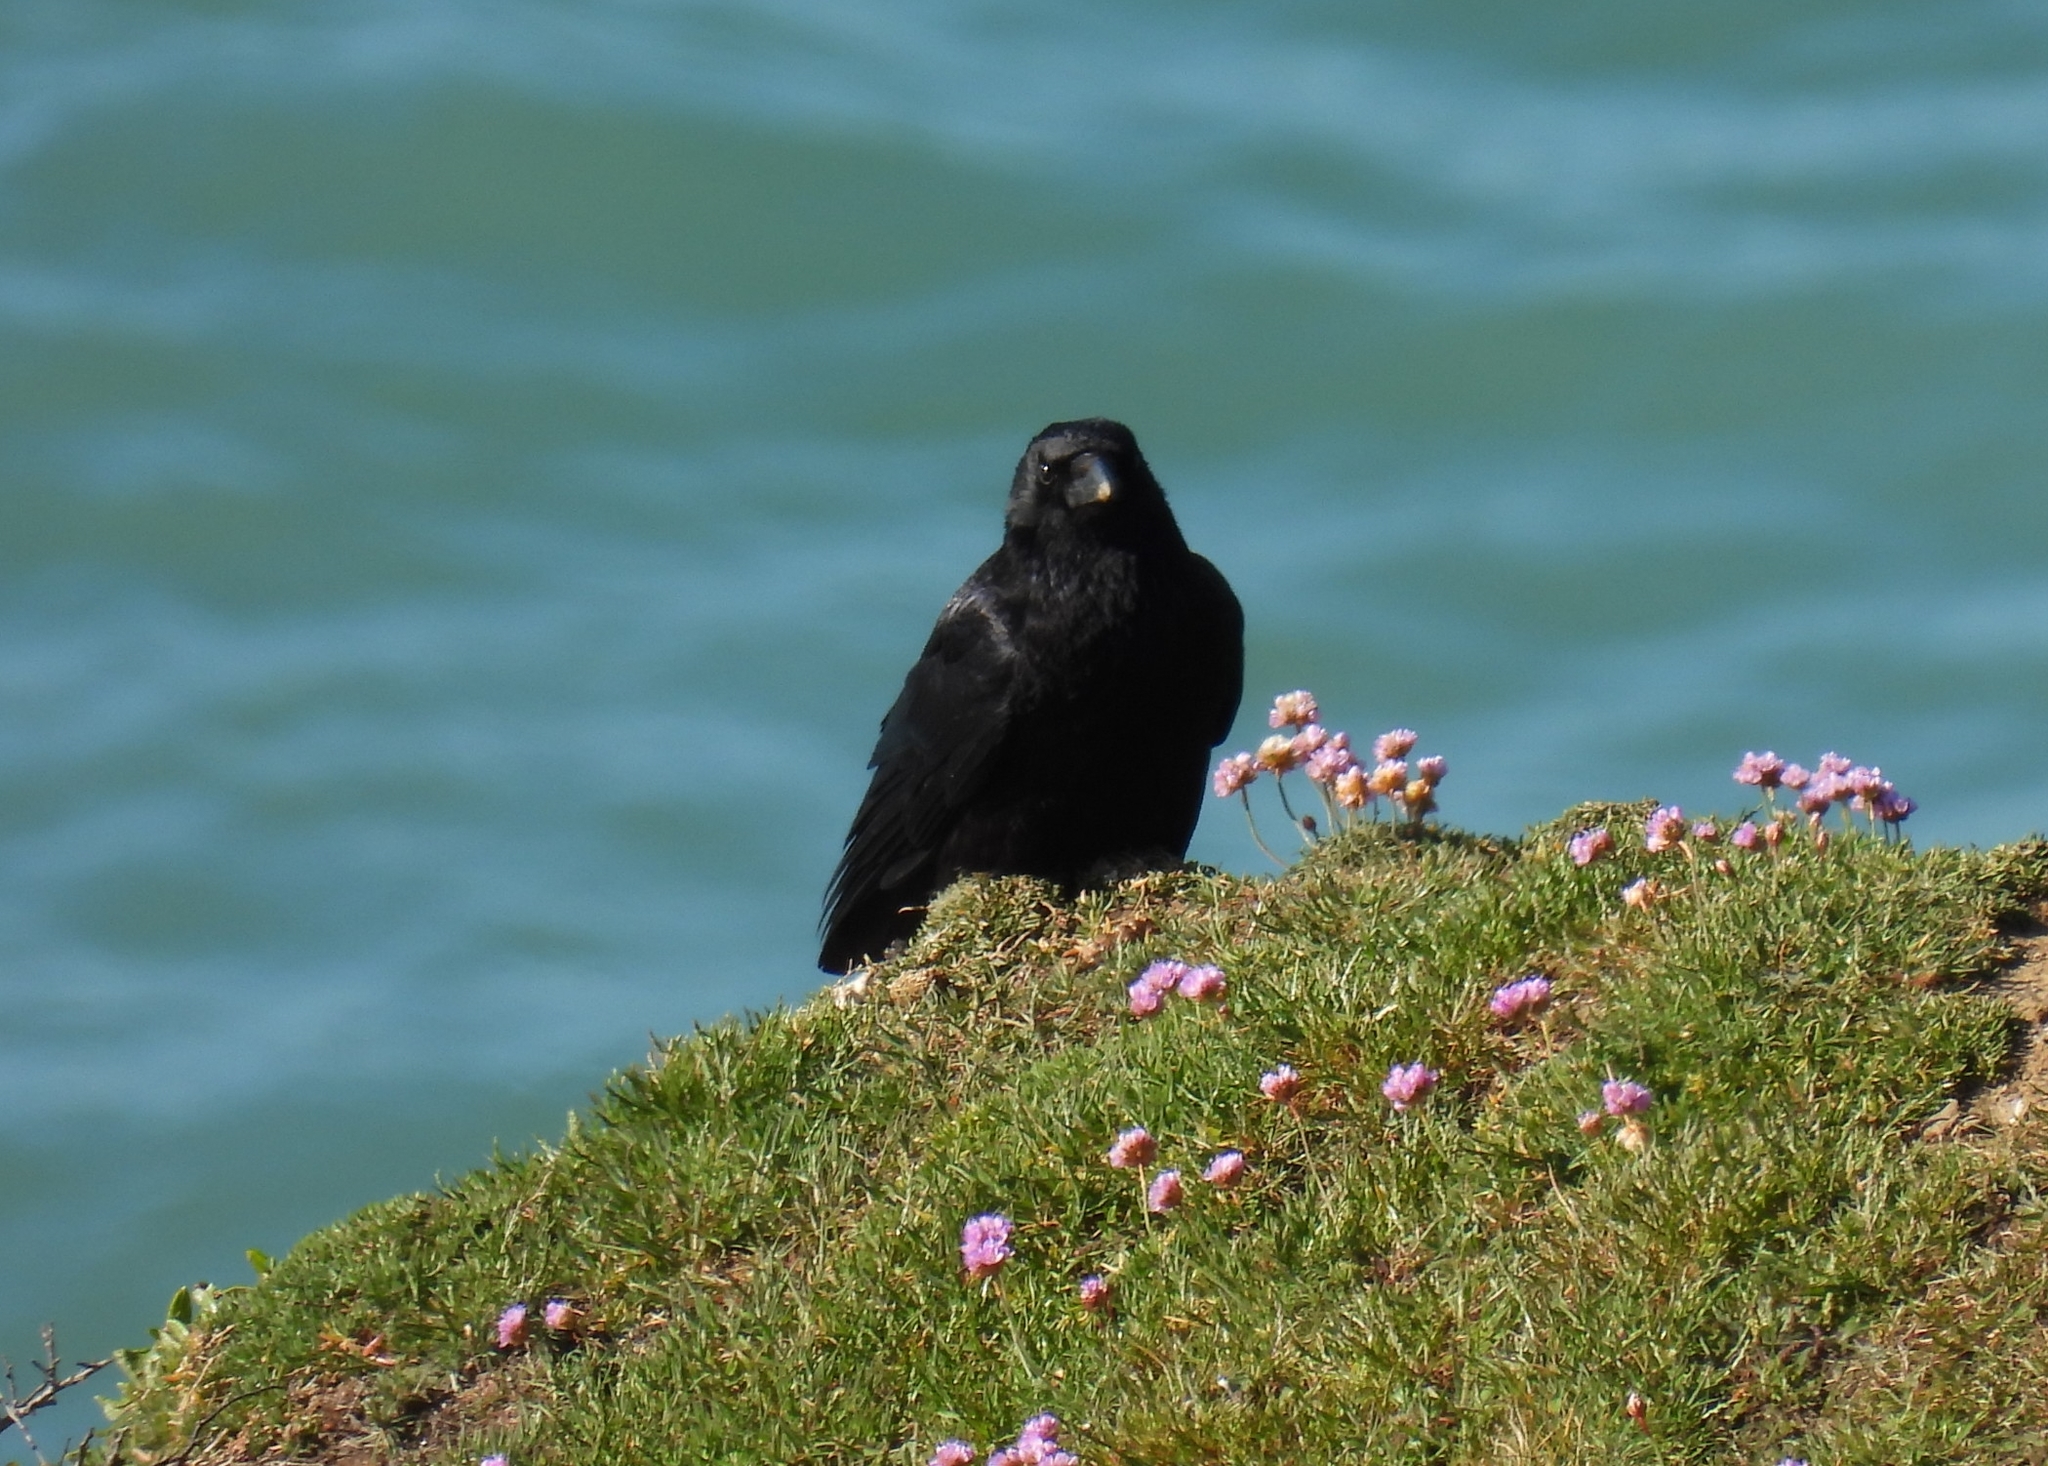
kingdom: Animalia
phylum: Chordata
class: Aves
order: Passeriformes
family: Corvidae
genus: Corvus
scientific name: Corvus corone
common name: Carrion crow
